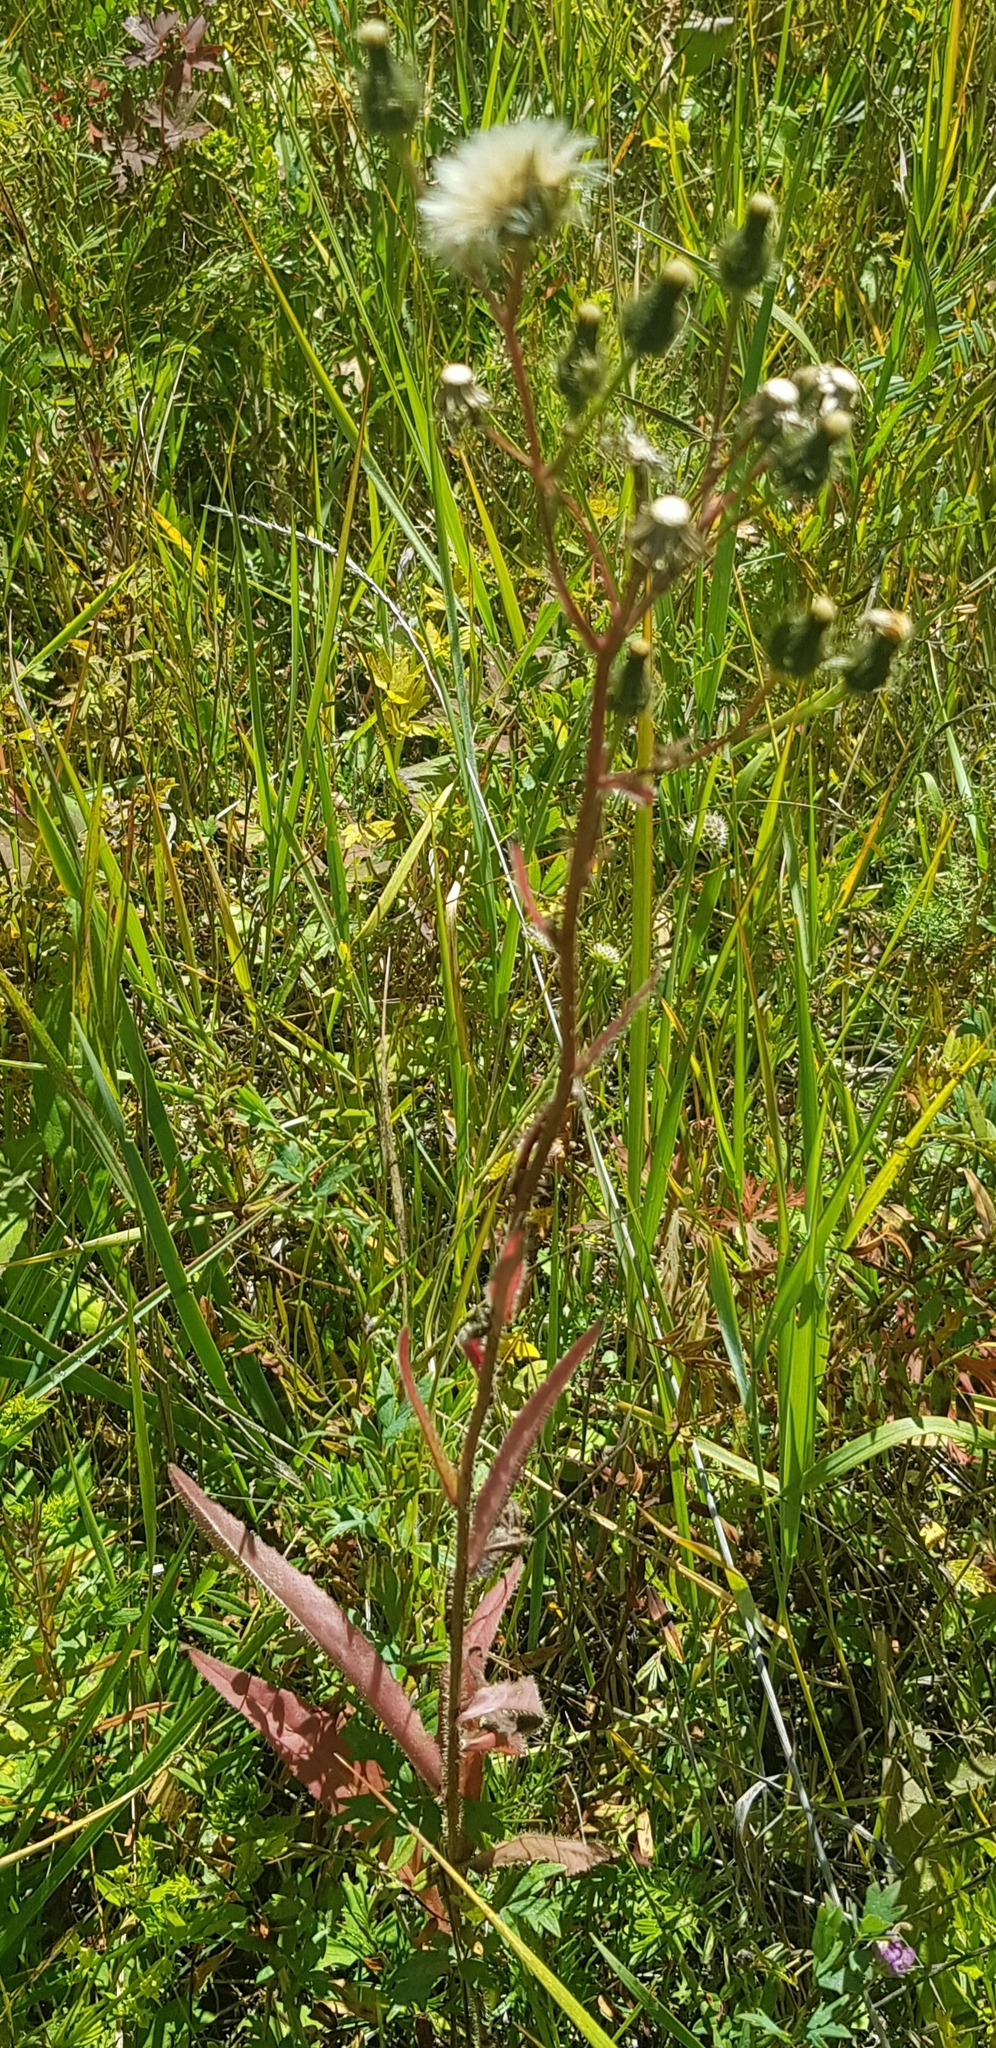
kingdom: Plantae
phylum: Tracheophyta
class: Magnoliopsida
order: Asterales
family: Asteraceae
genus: Lactuca
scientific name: Lactuca tatarica
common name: Blue lettuce
